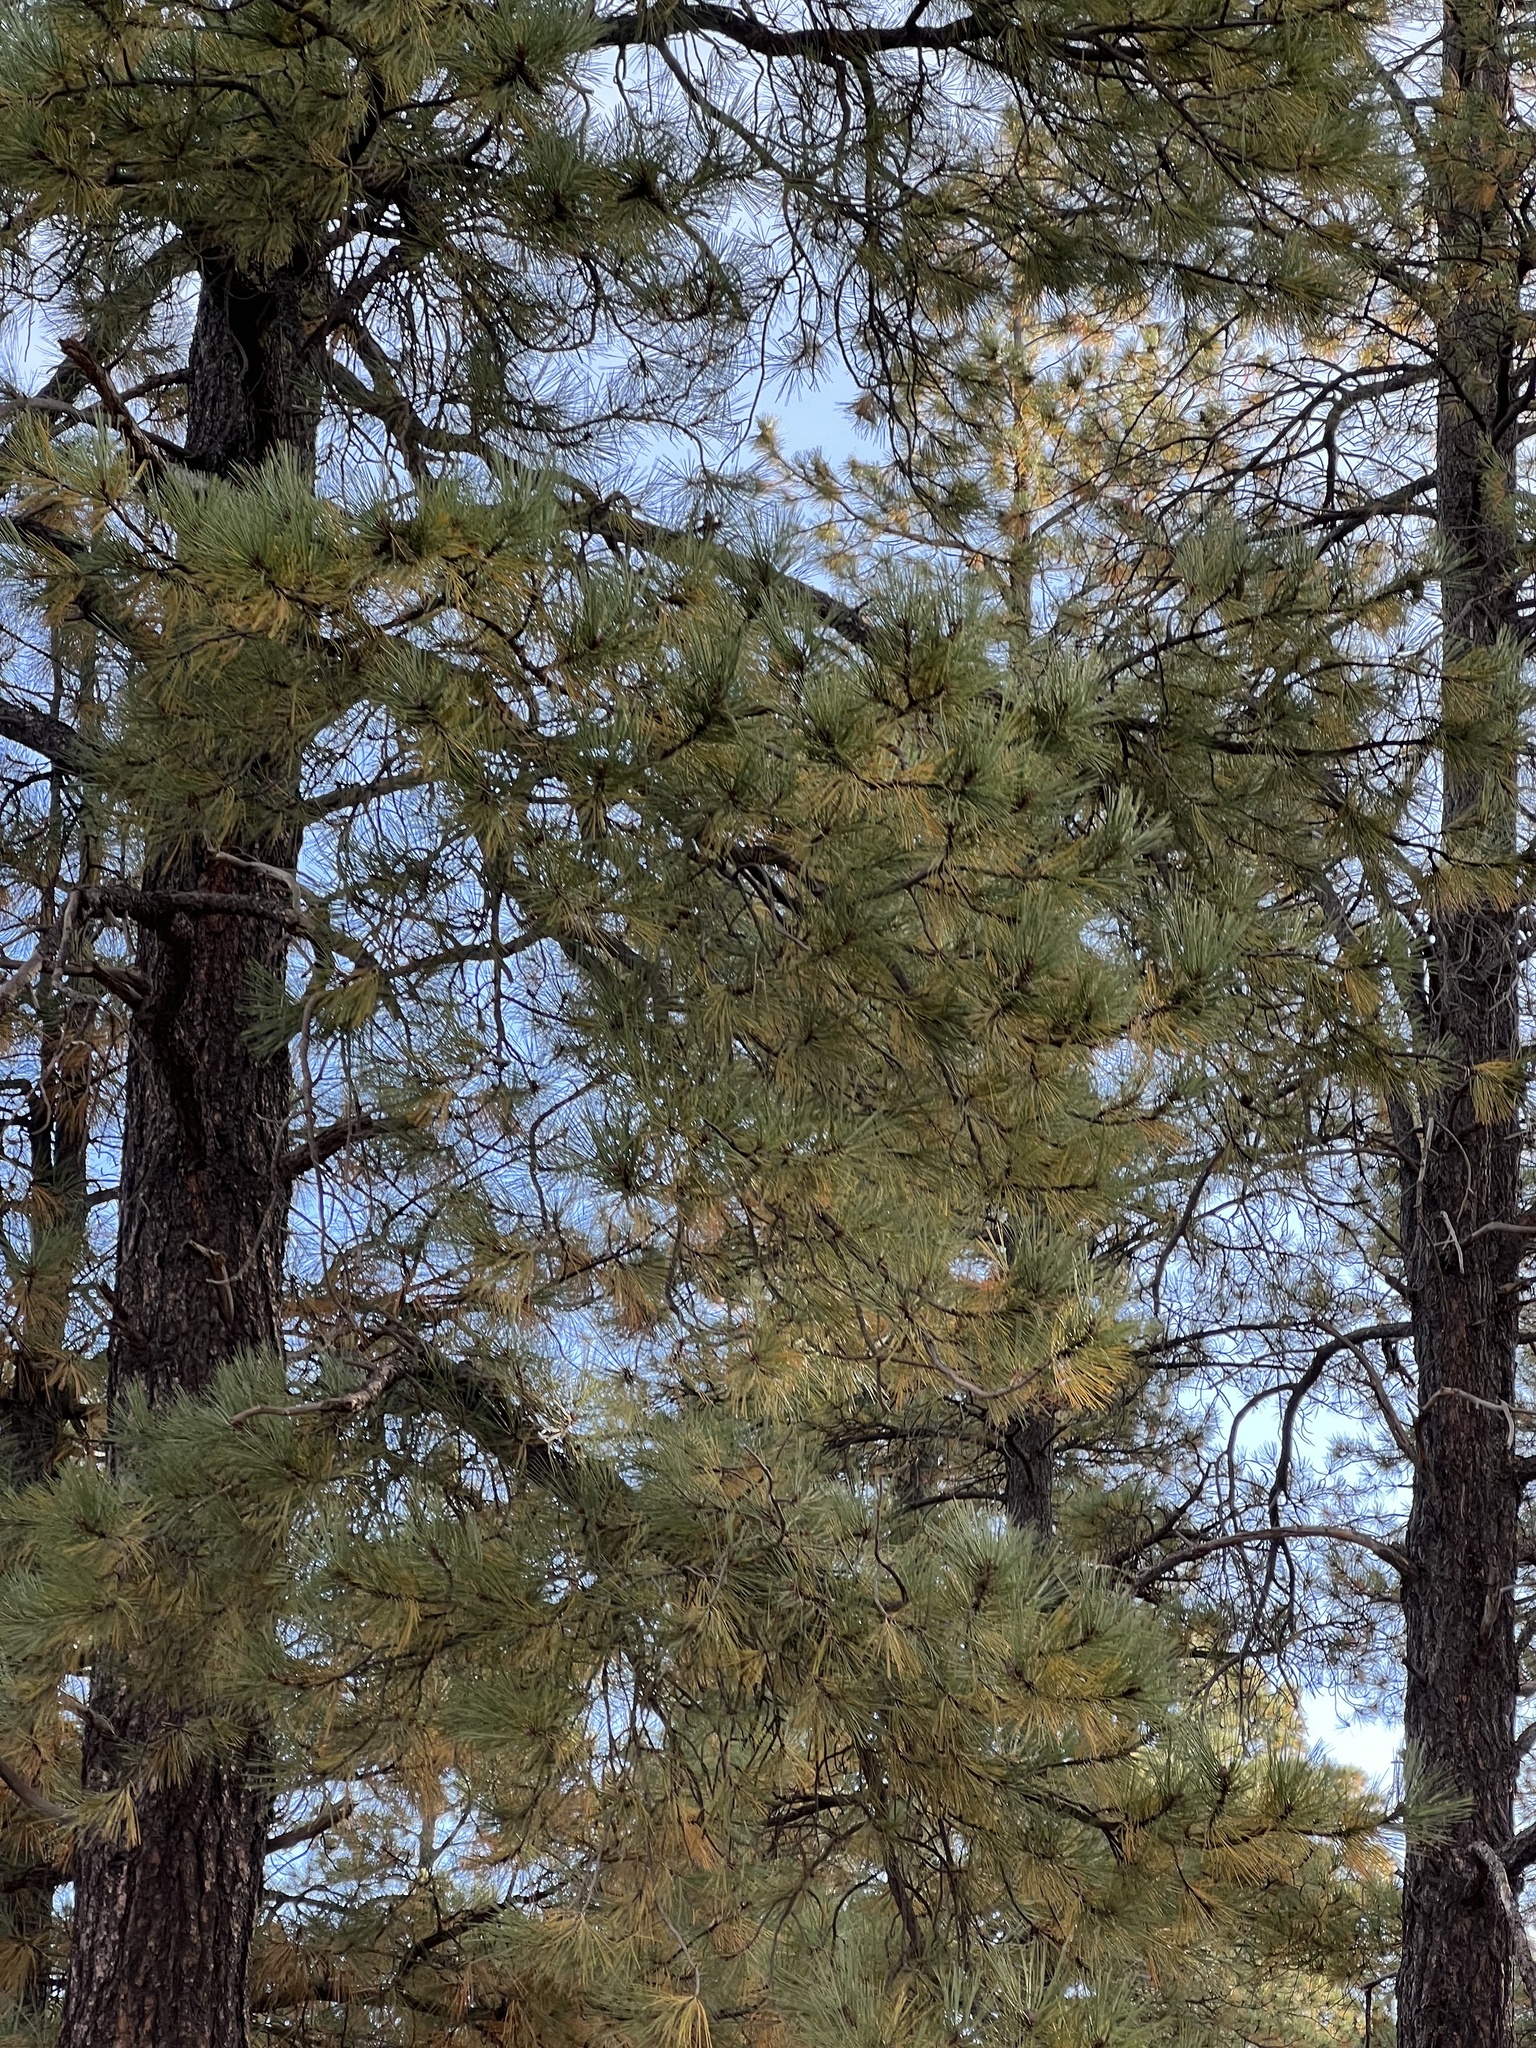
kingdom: Plantae
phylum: Tracheophyta
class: Pinopsida
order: Pinales
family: Pinaceae
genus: Pinus
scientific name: Pinus ponderosa
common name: Western yellow-pine
